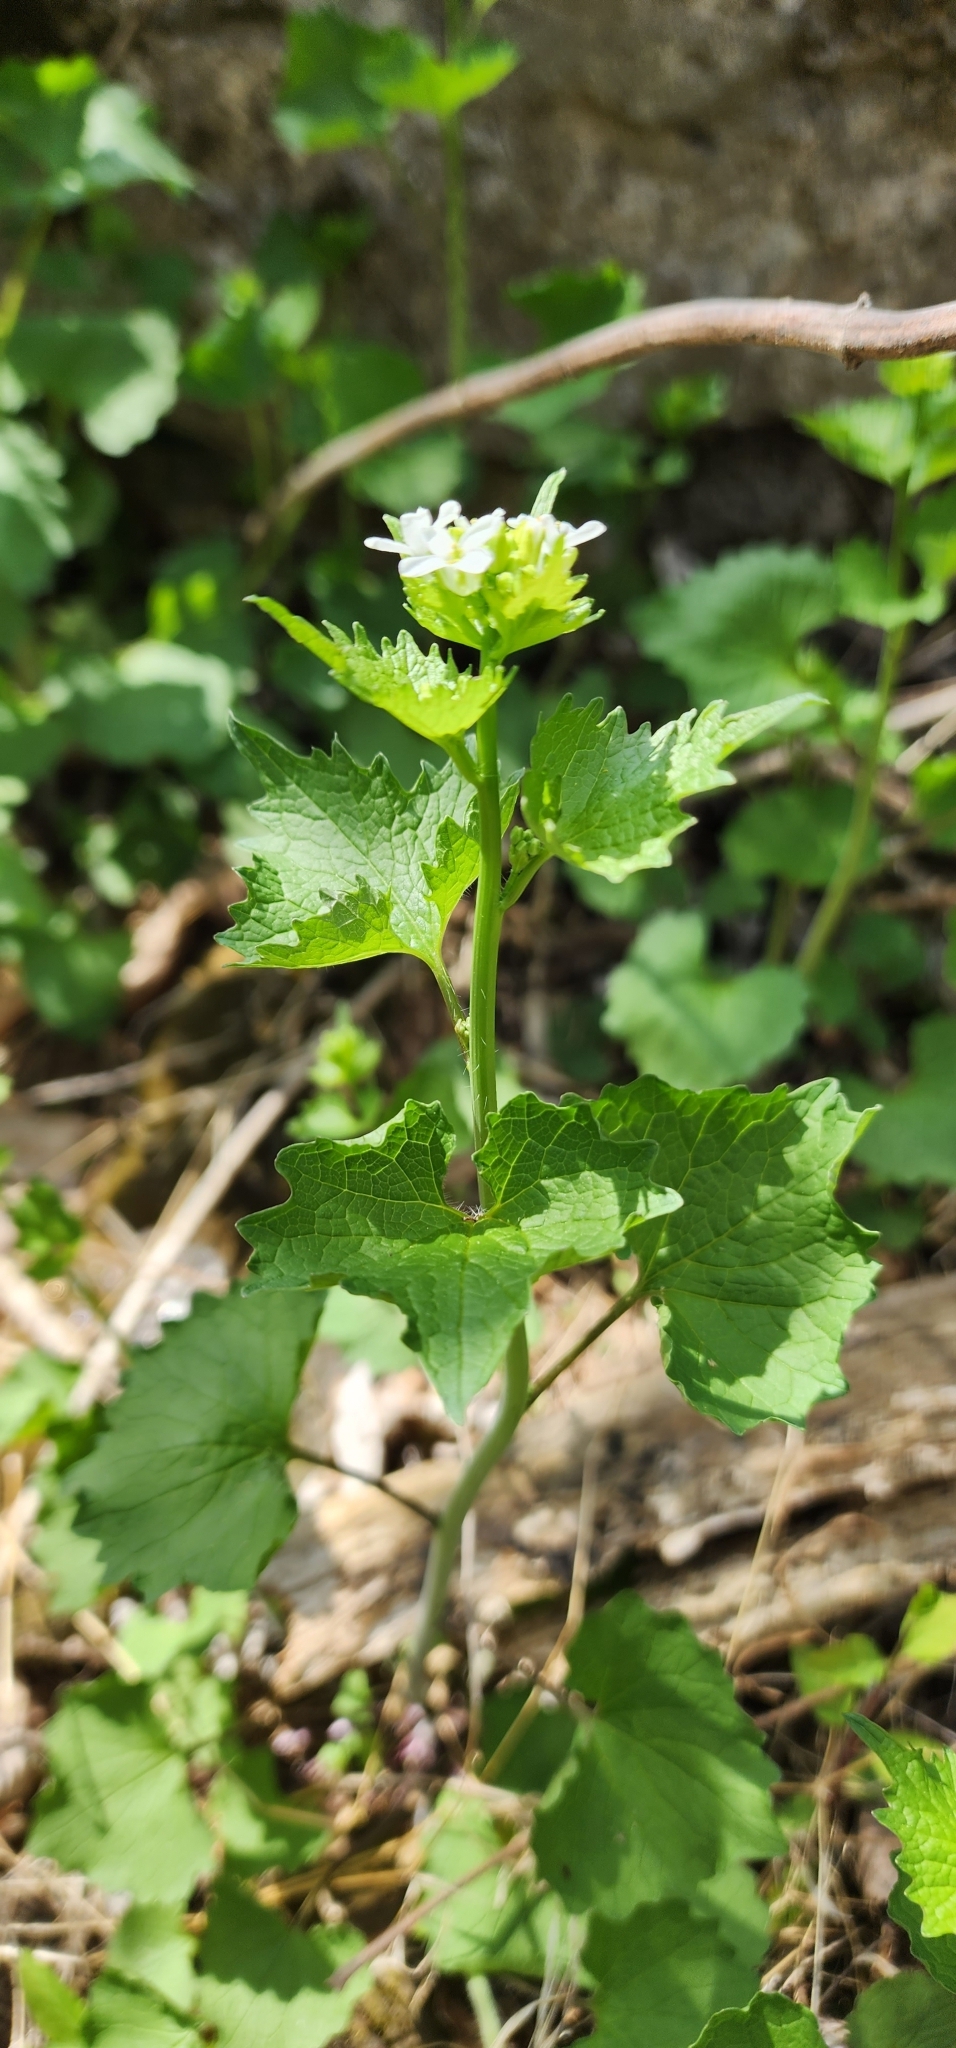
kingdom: Plantae
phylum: Tracheophyta
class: Magnoliopsida
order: Brassicales
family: Brassicaceae
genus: Alliaria
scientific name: Alliaria petiolata
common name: Garlic mustard
